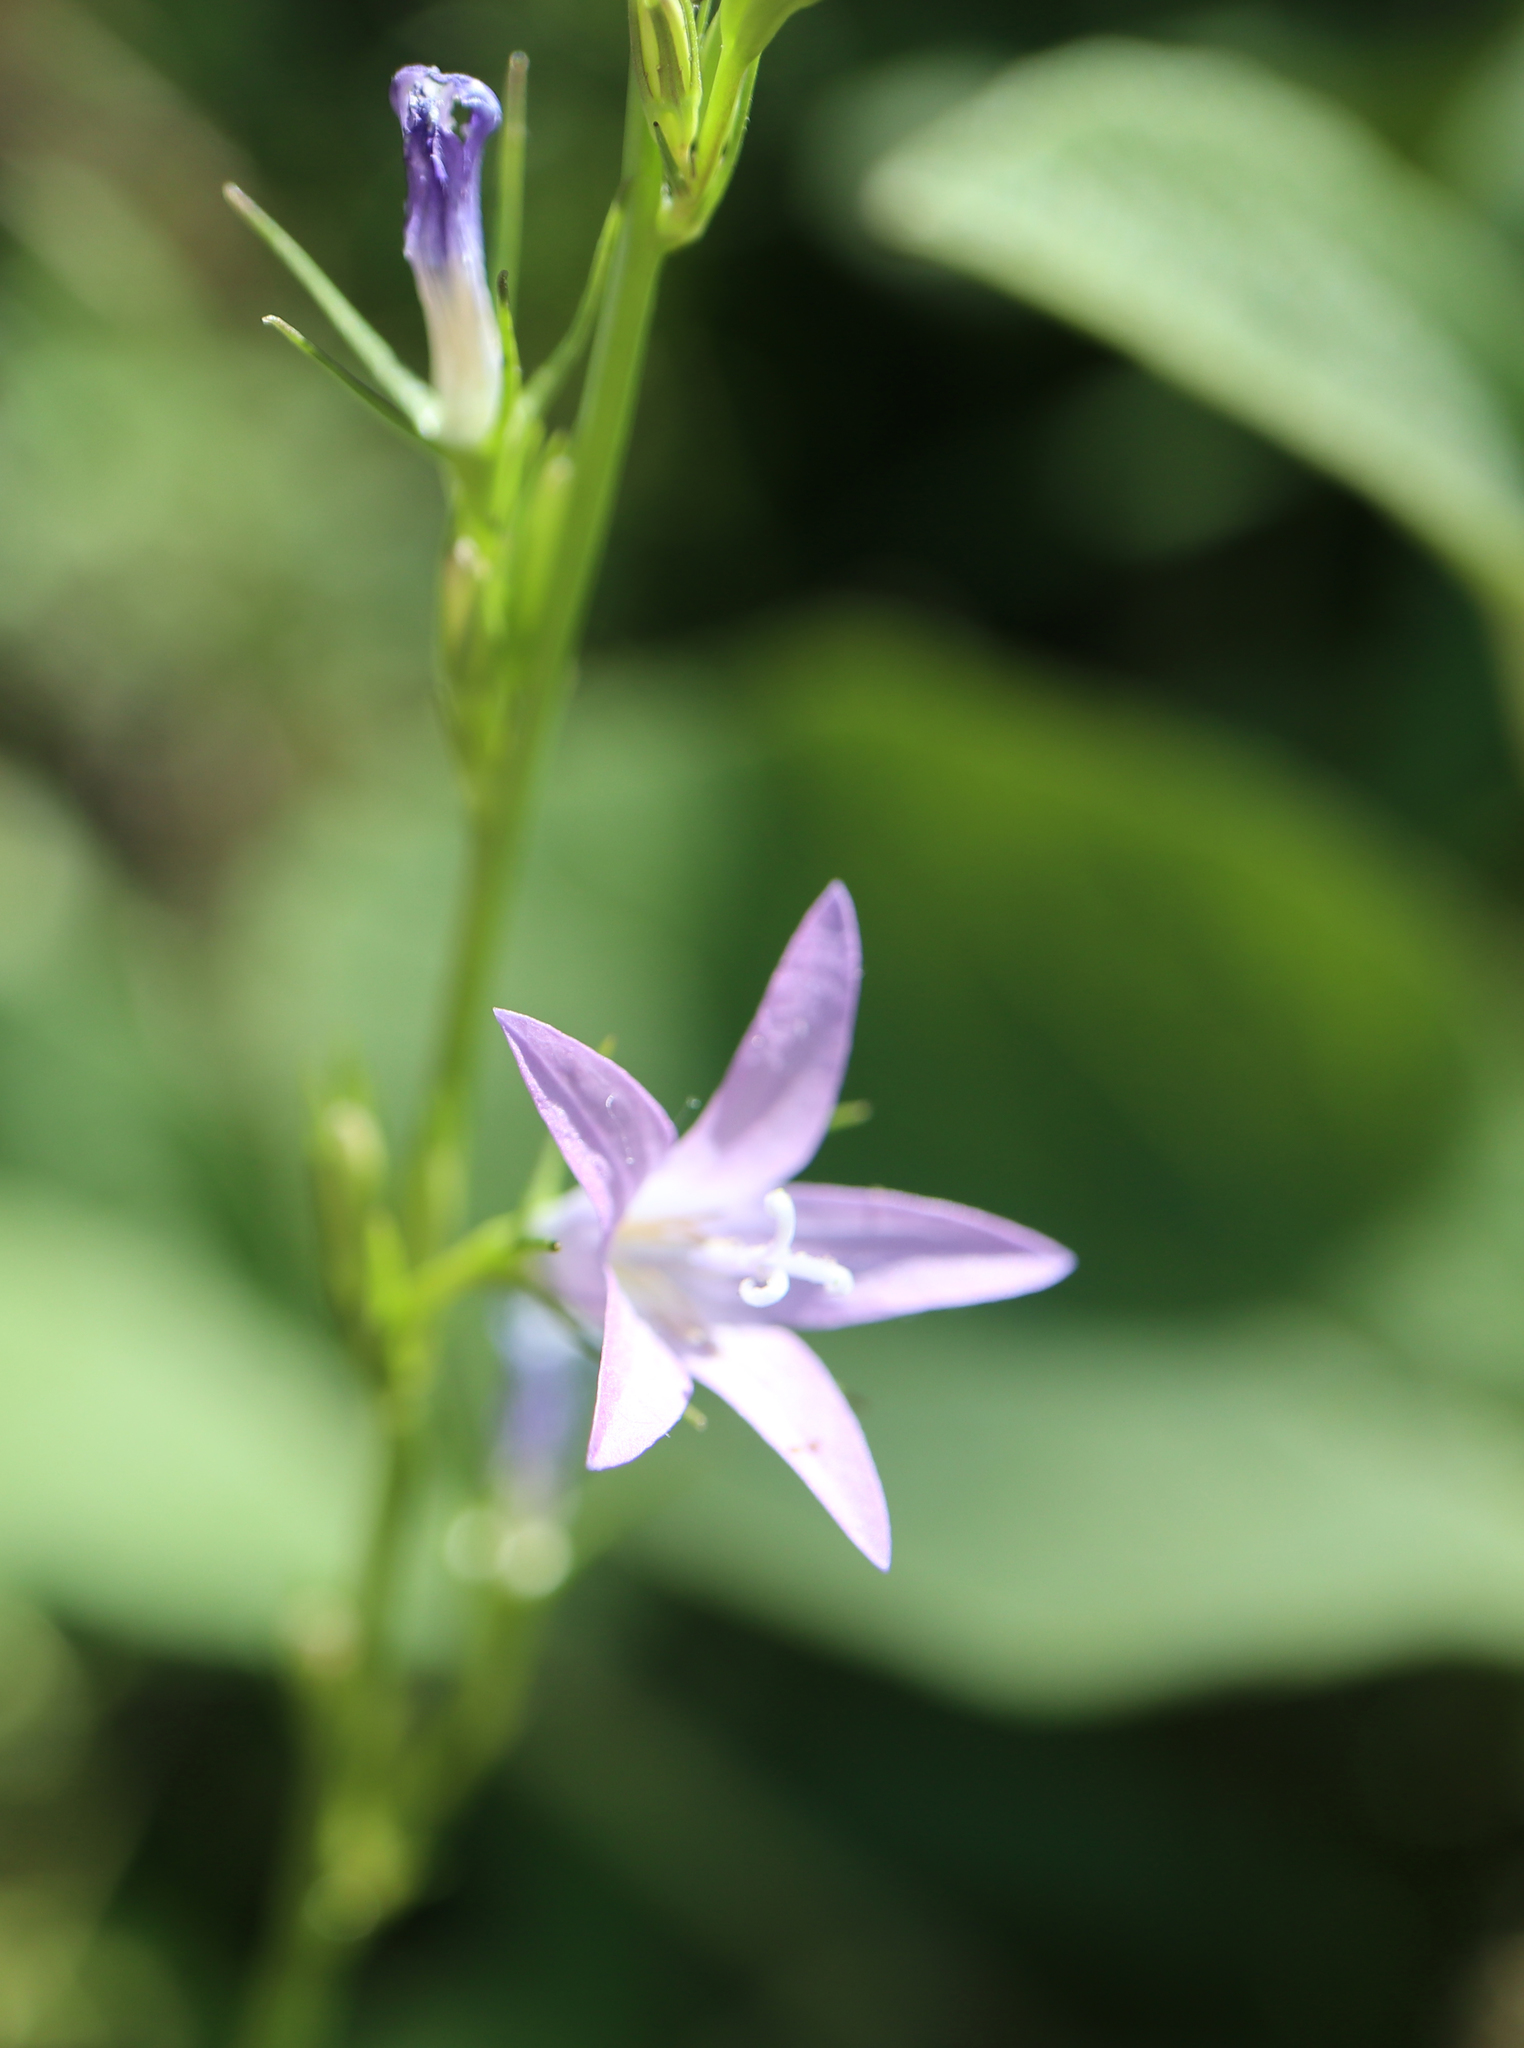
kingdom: Plantae
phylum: Tracheophyta
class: Magnoliopsida
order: Asterales
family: Campanulaceae
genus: Campanula
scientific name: Campanula rapunculus
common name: Rampion bellflower
